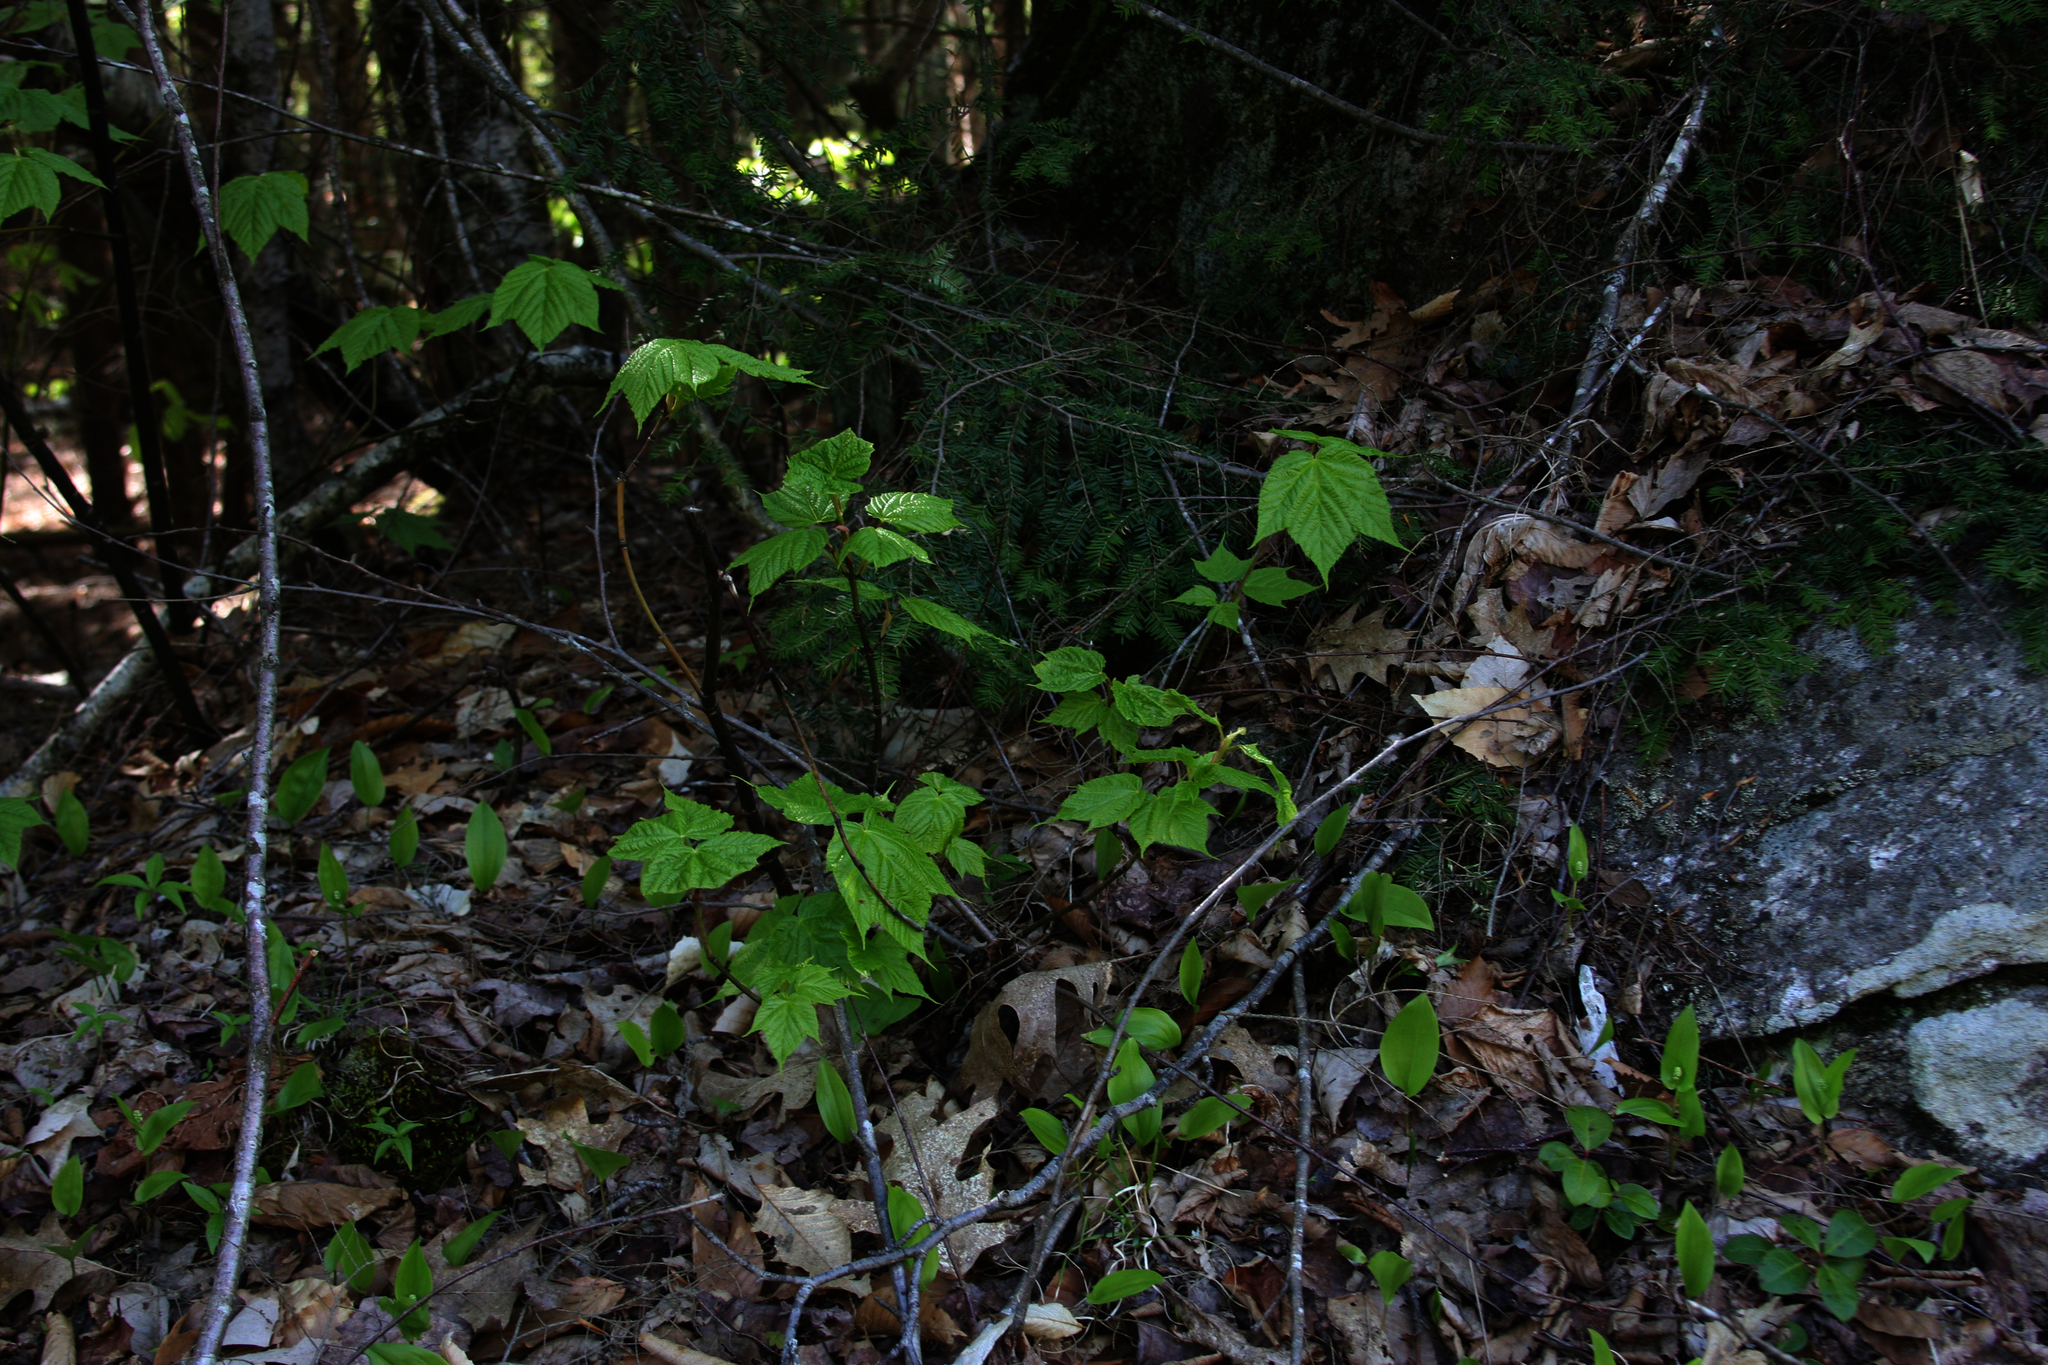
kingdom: Plantae
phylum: Tracheophyta
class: Liliopsida
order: Asparagales
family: Asparagaceae
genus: Maianthemum
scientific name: Maianthemum canadense
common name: False lily-of-the-valley
